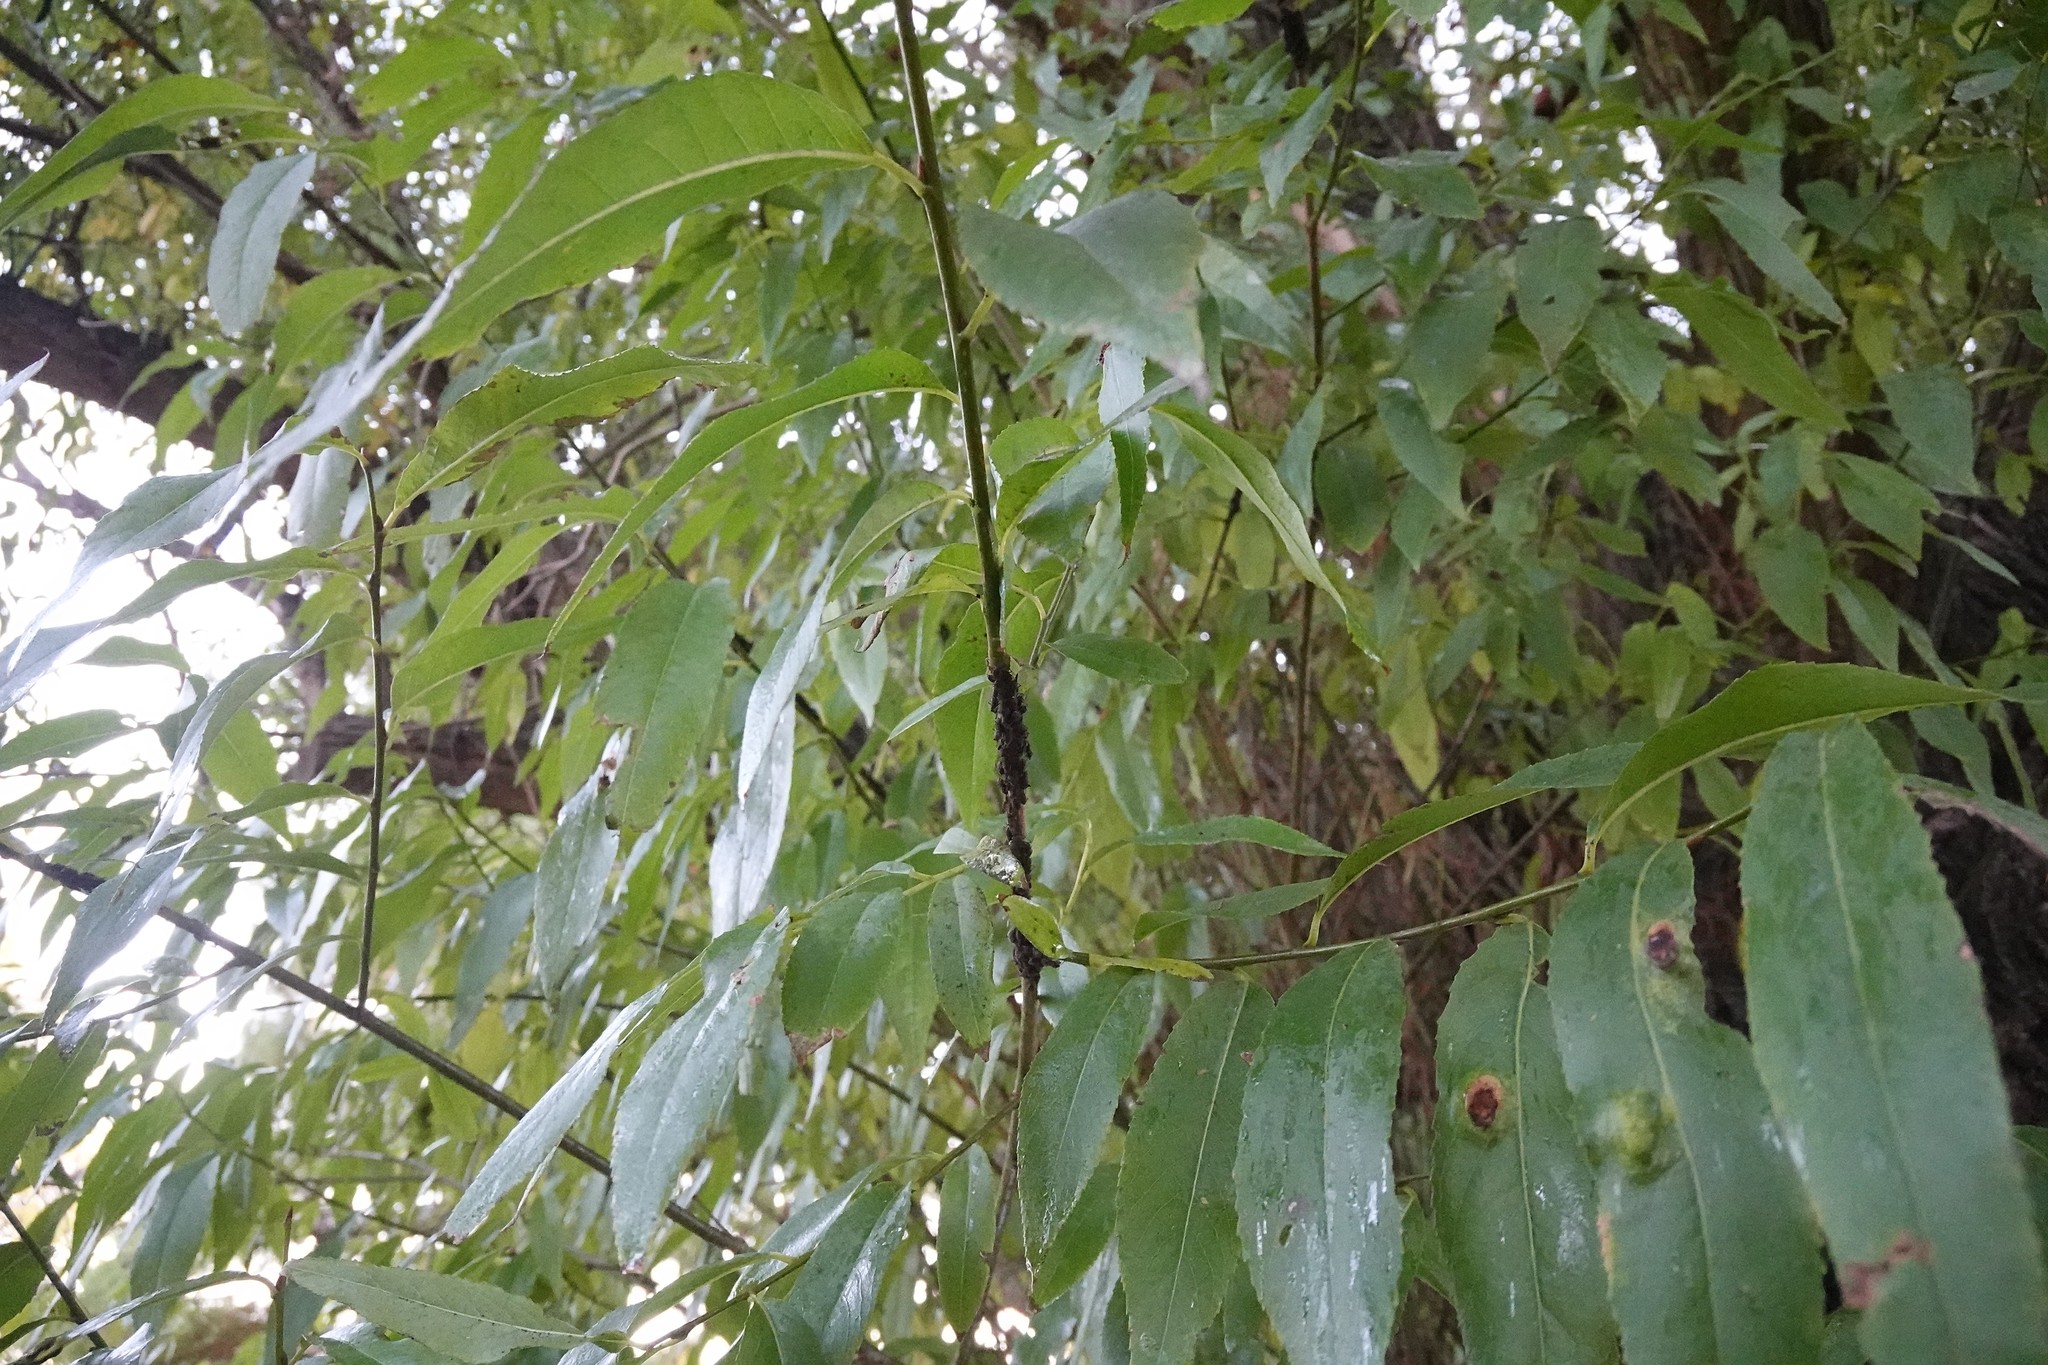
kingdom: Animalia
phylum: Arthropoda
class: Insecta
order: Hemiptera
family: Aphididae
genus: Tuberolachnus
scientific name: Tuberolachnus salignus
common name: Giant willow aphid
